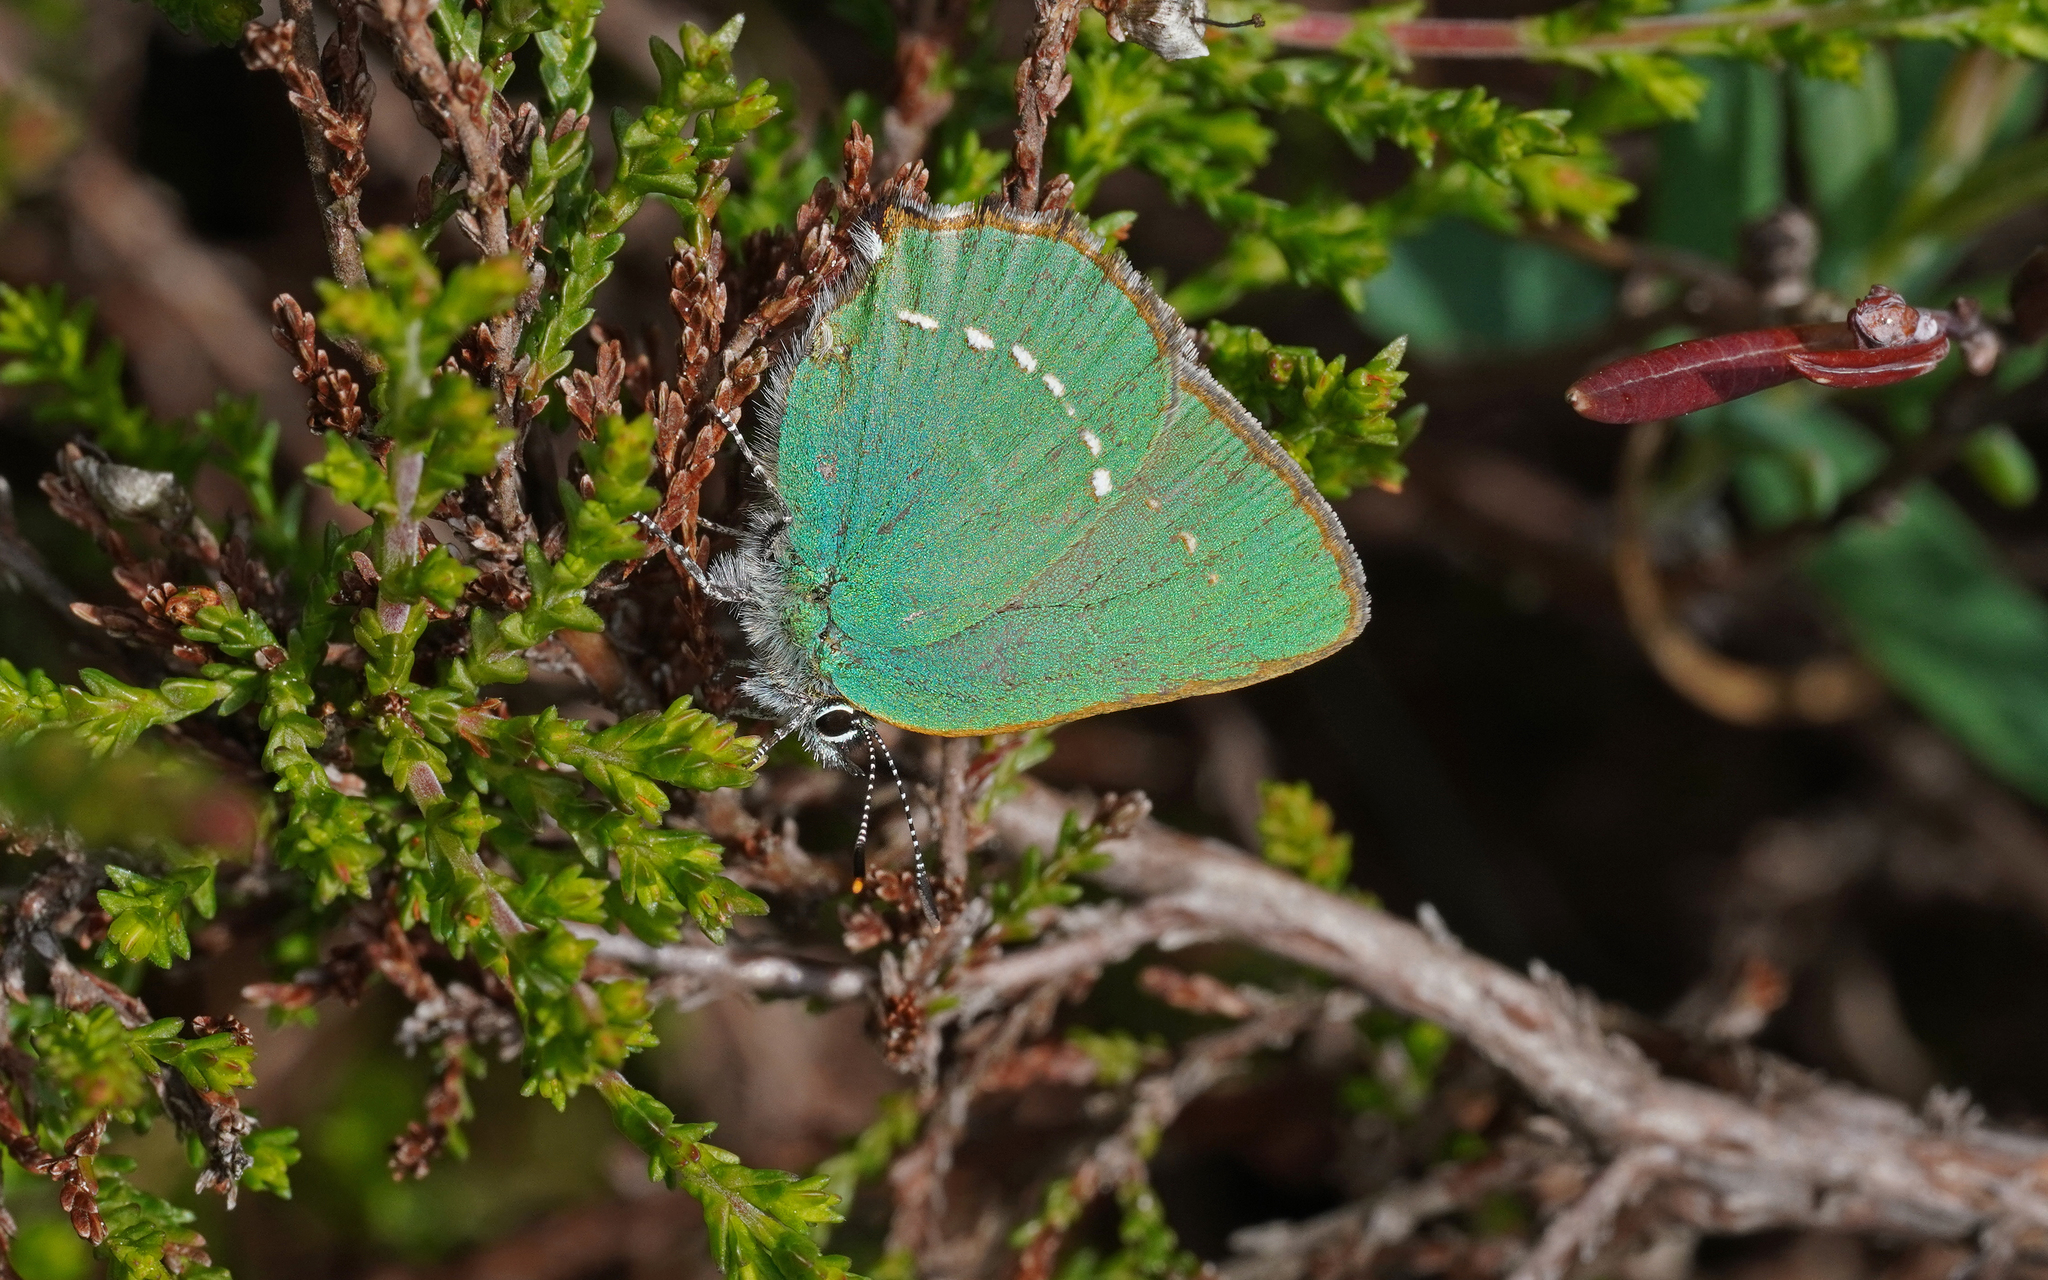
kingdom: Animalia
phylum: Arthropoda
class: Insecta
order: Lepidoptera
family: Lycaenidae
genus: Callophrys
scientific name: Callophrys rubi
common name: Green hairstreak
